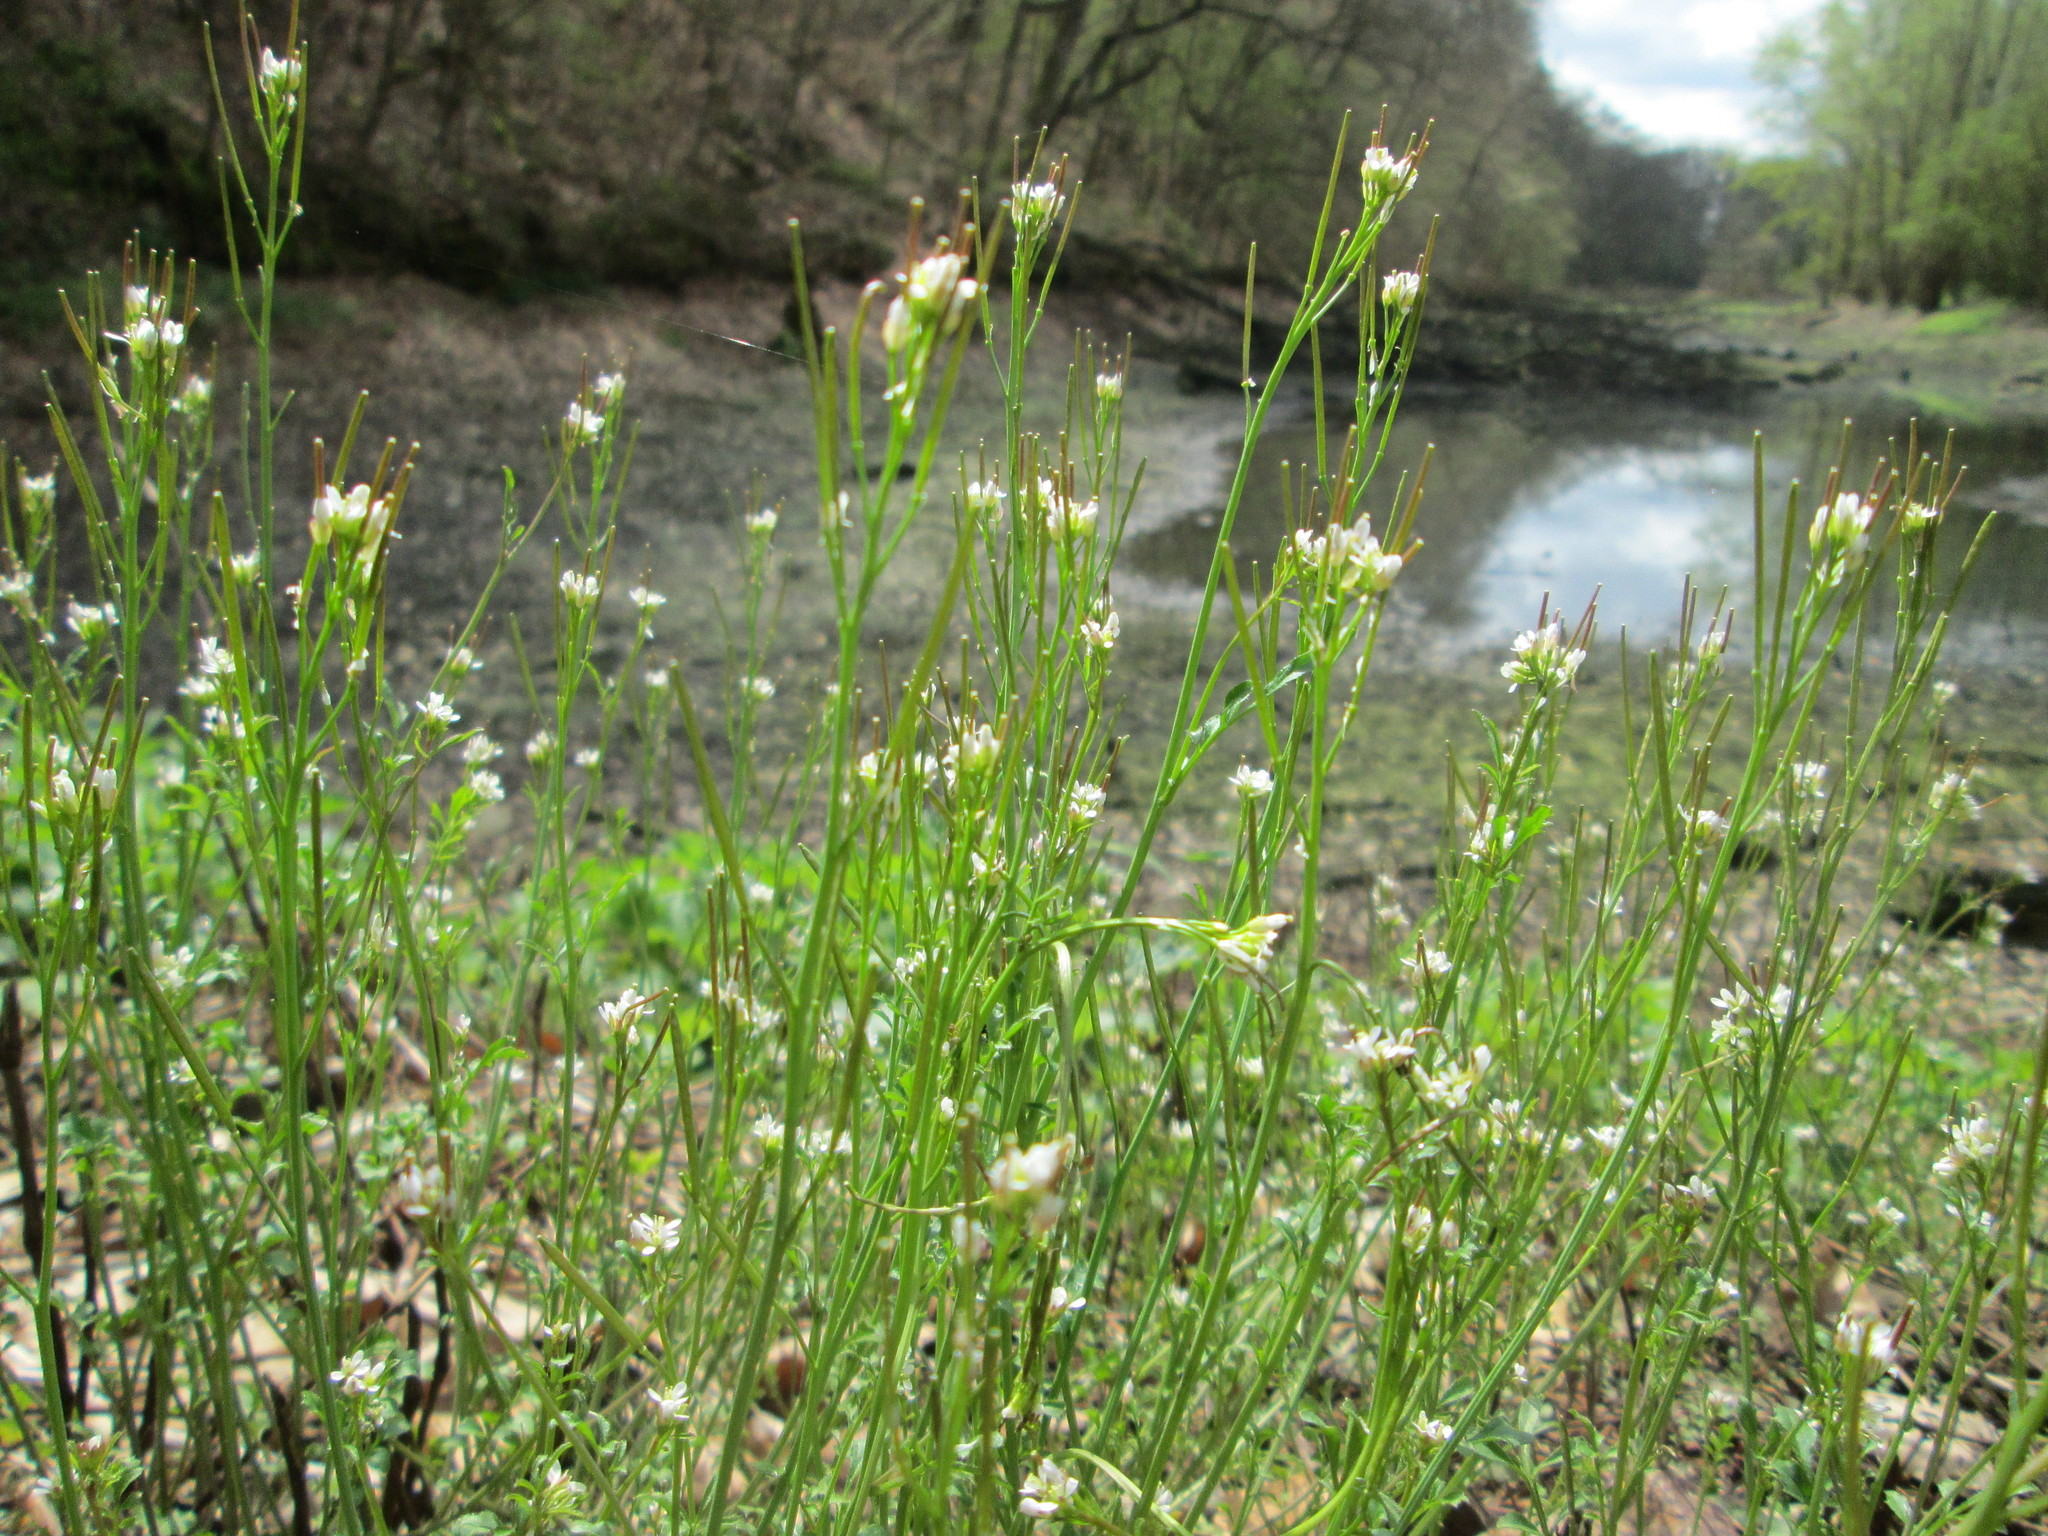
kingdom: Plantae
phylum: Tracheophyta
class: Magnoliopsida
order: Brassicales
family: Brassicaceae
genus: Cardamine
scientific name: Cardamine hirsuta
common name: Hairy bittercress
